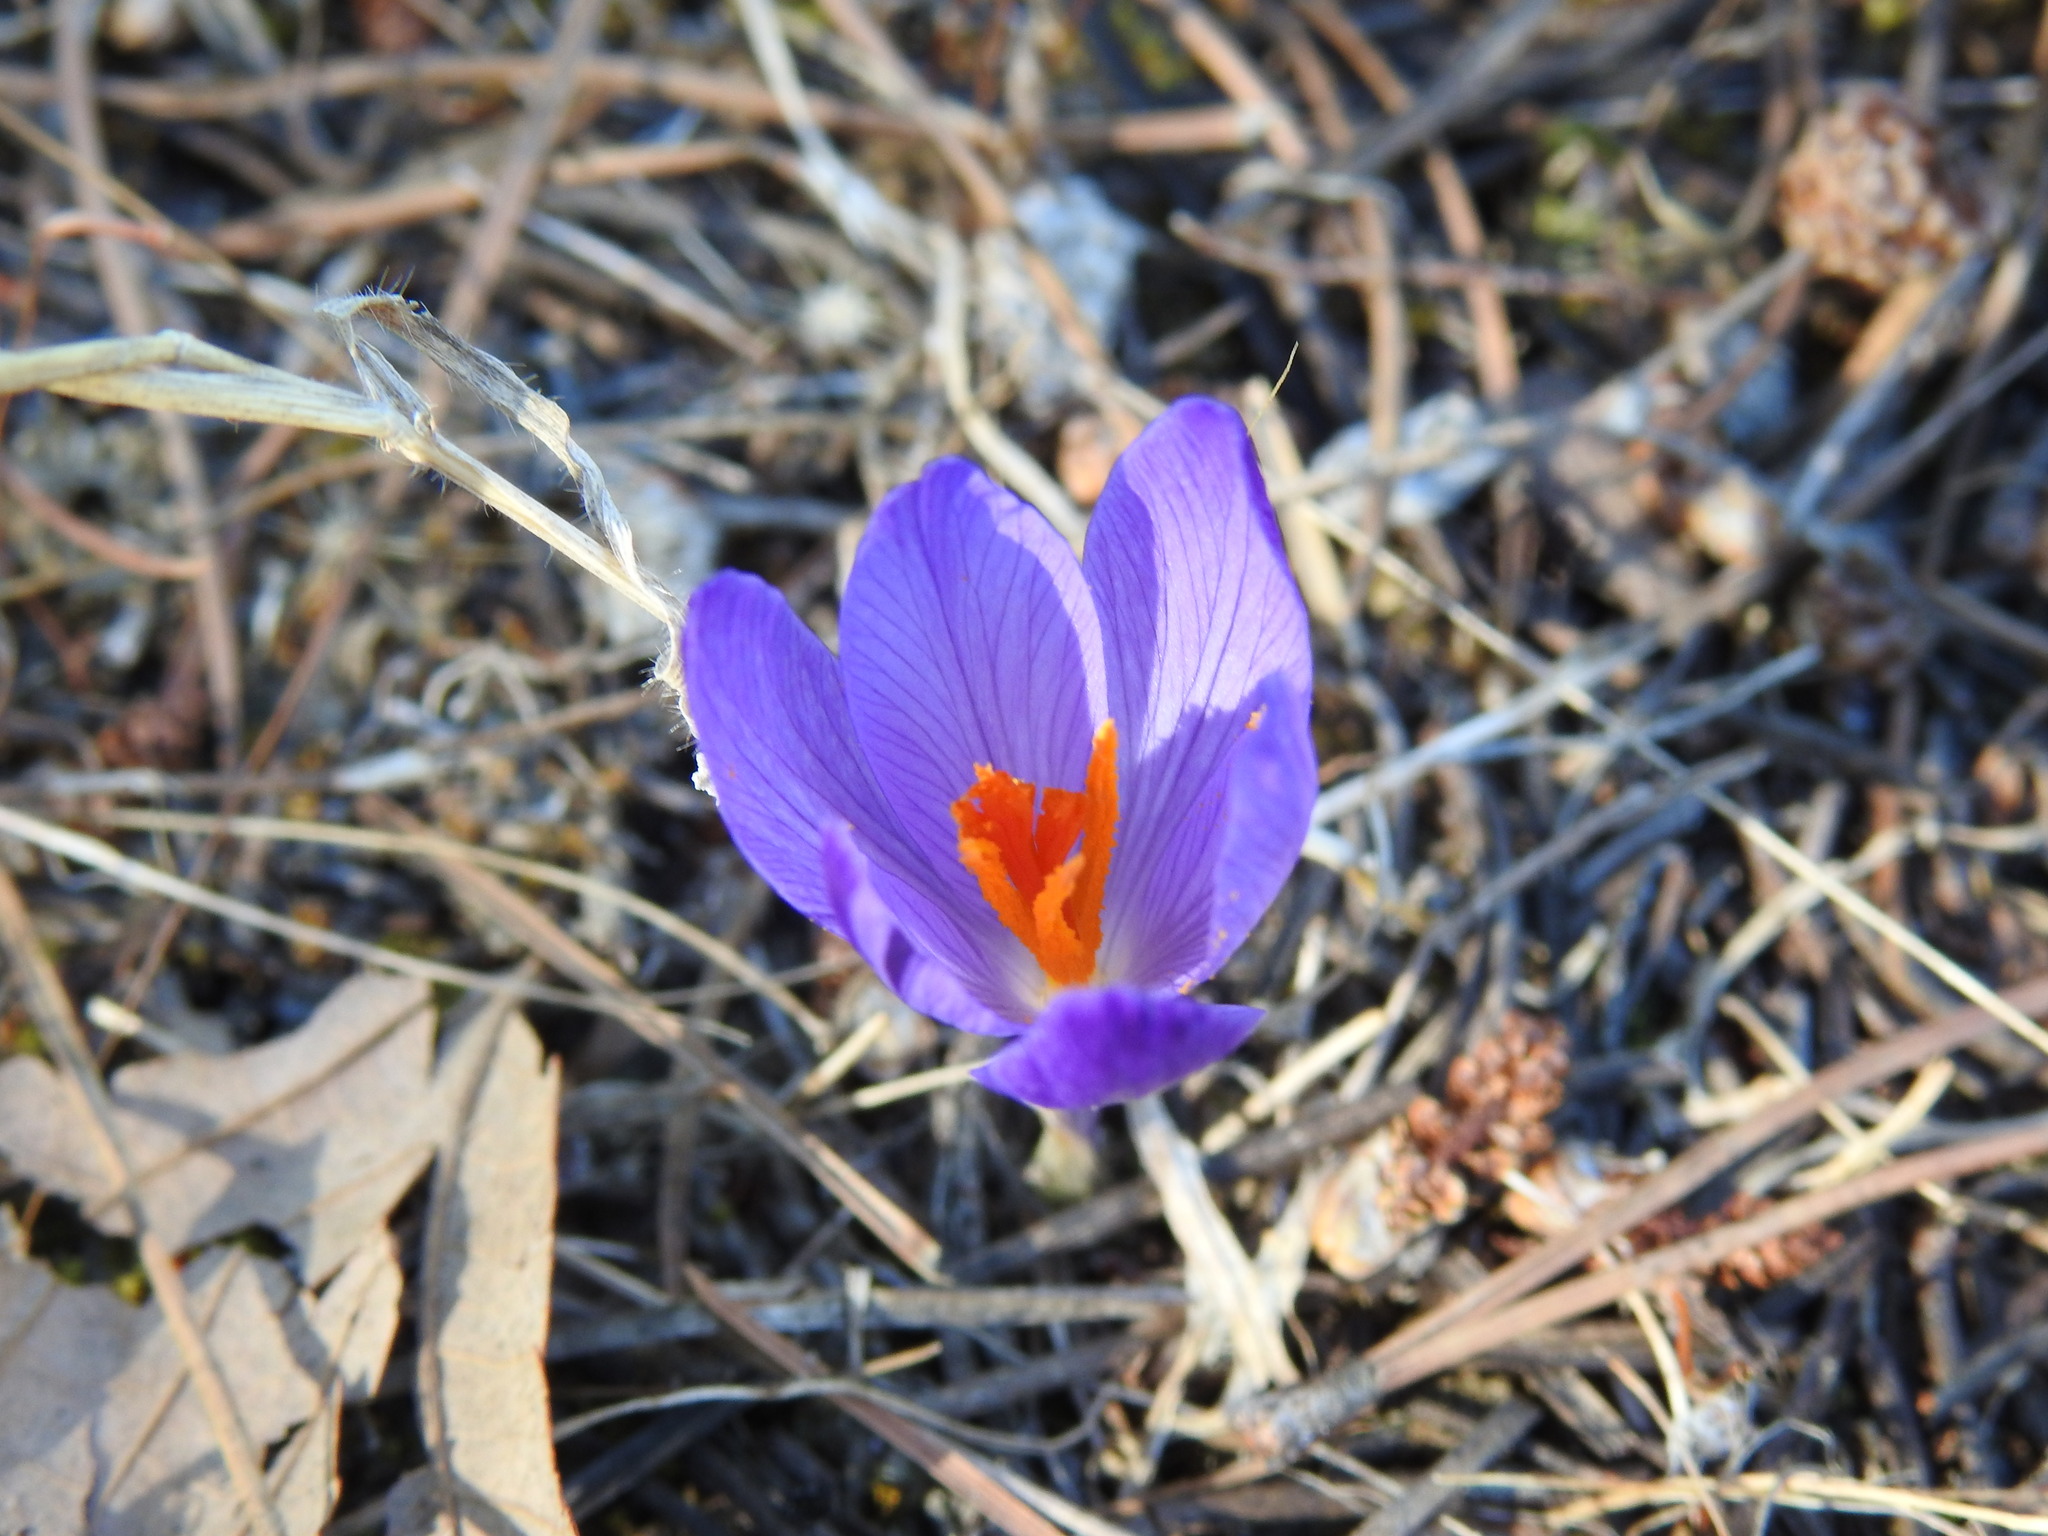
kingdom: Plantae
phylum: Tracheophyta
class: Liliopsida
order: Asparagales
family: Iridaceae
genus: Crocus
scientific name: Crocus serotinus
